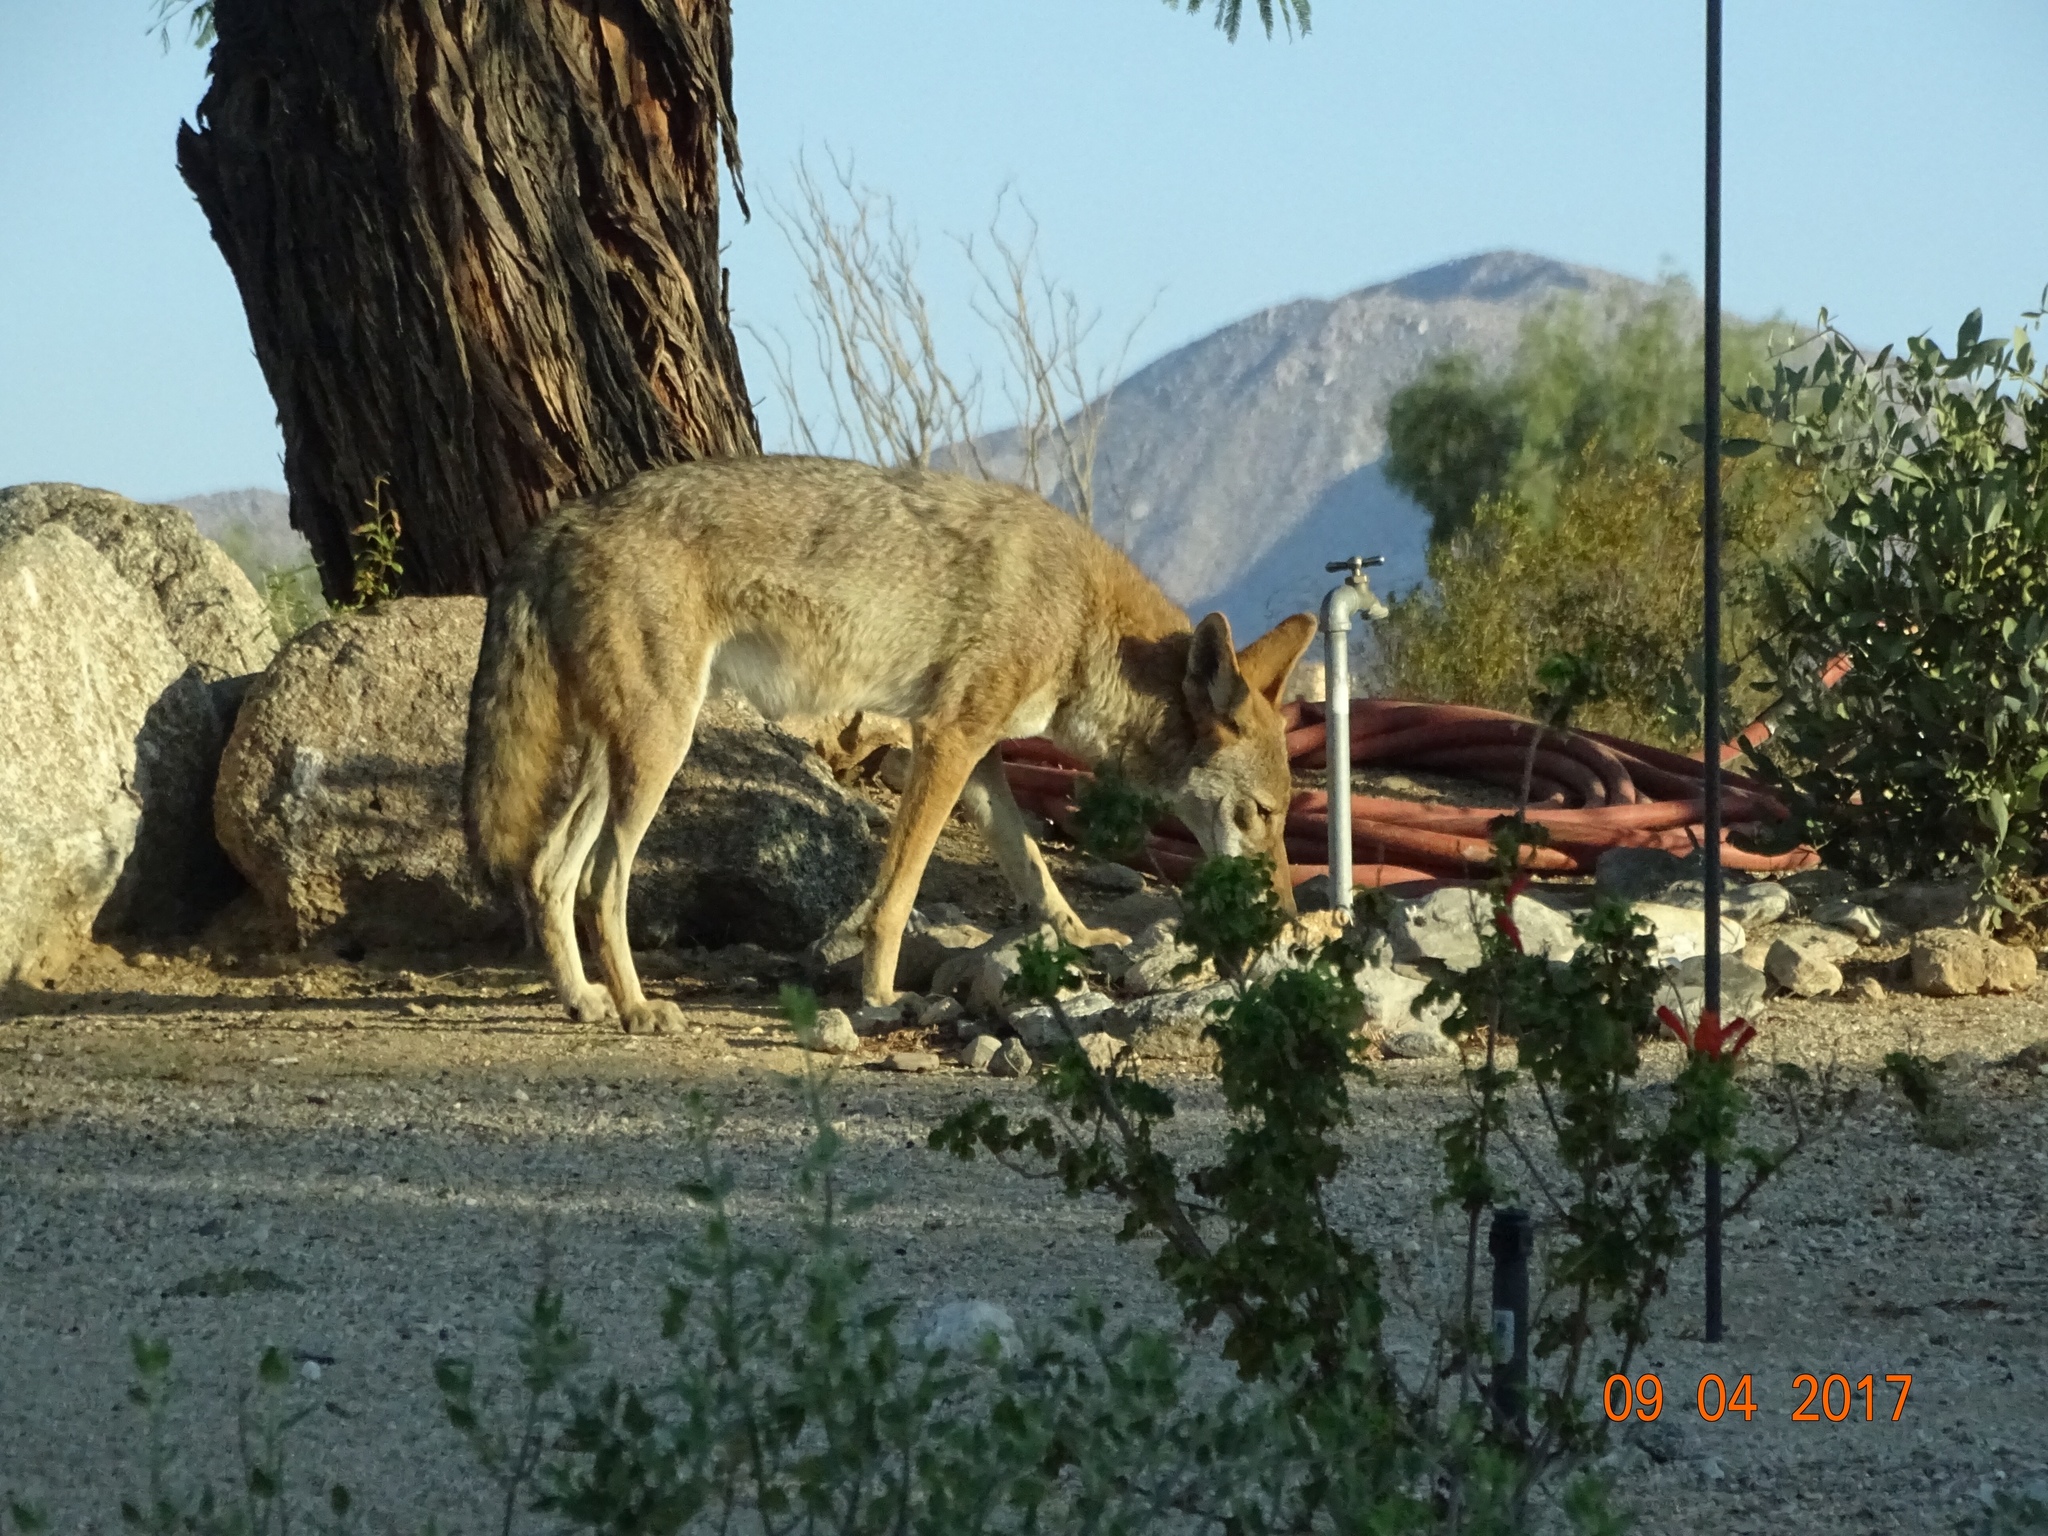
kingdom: Animalia
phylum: Chordata
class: Mammalia
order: Carnivora
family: Canidae
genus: Canis
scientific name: Canis latrans
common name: Coyote
